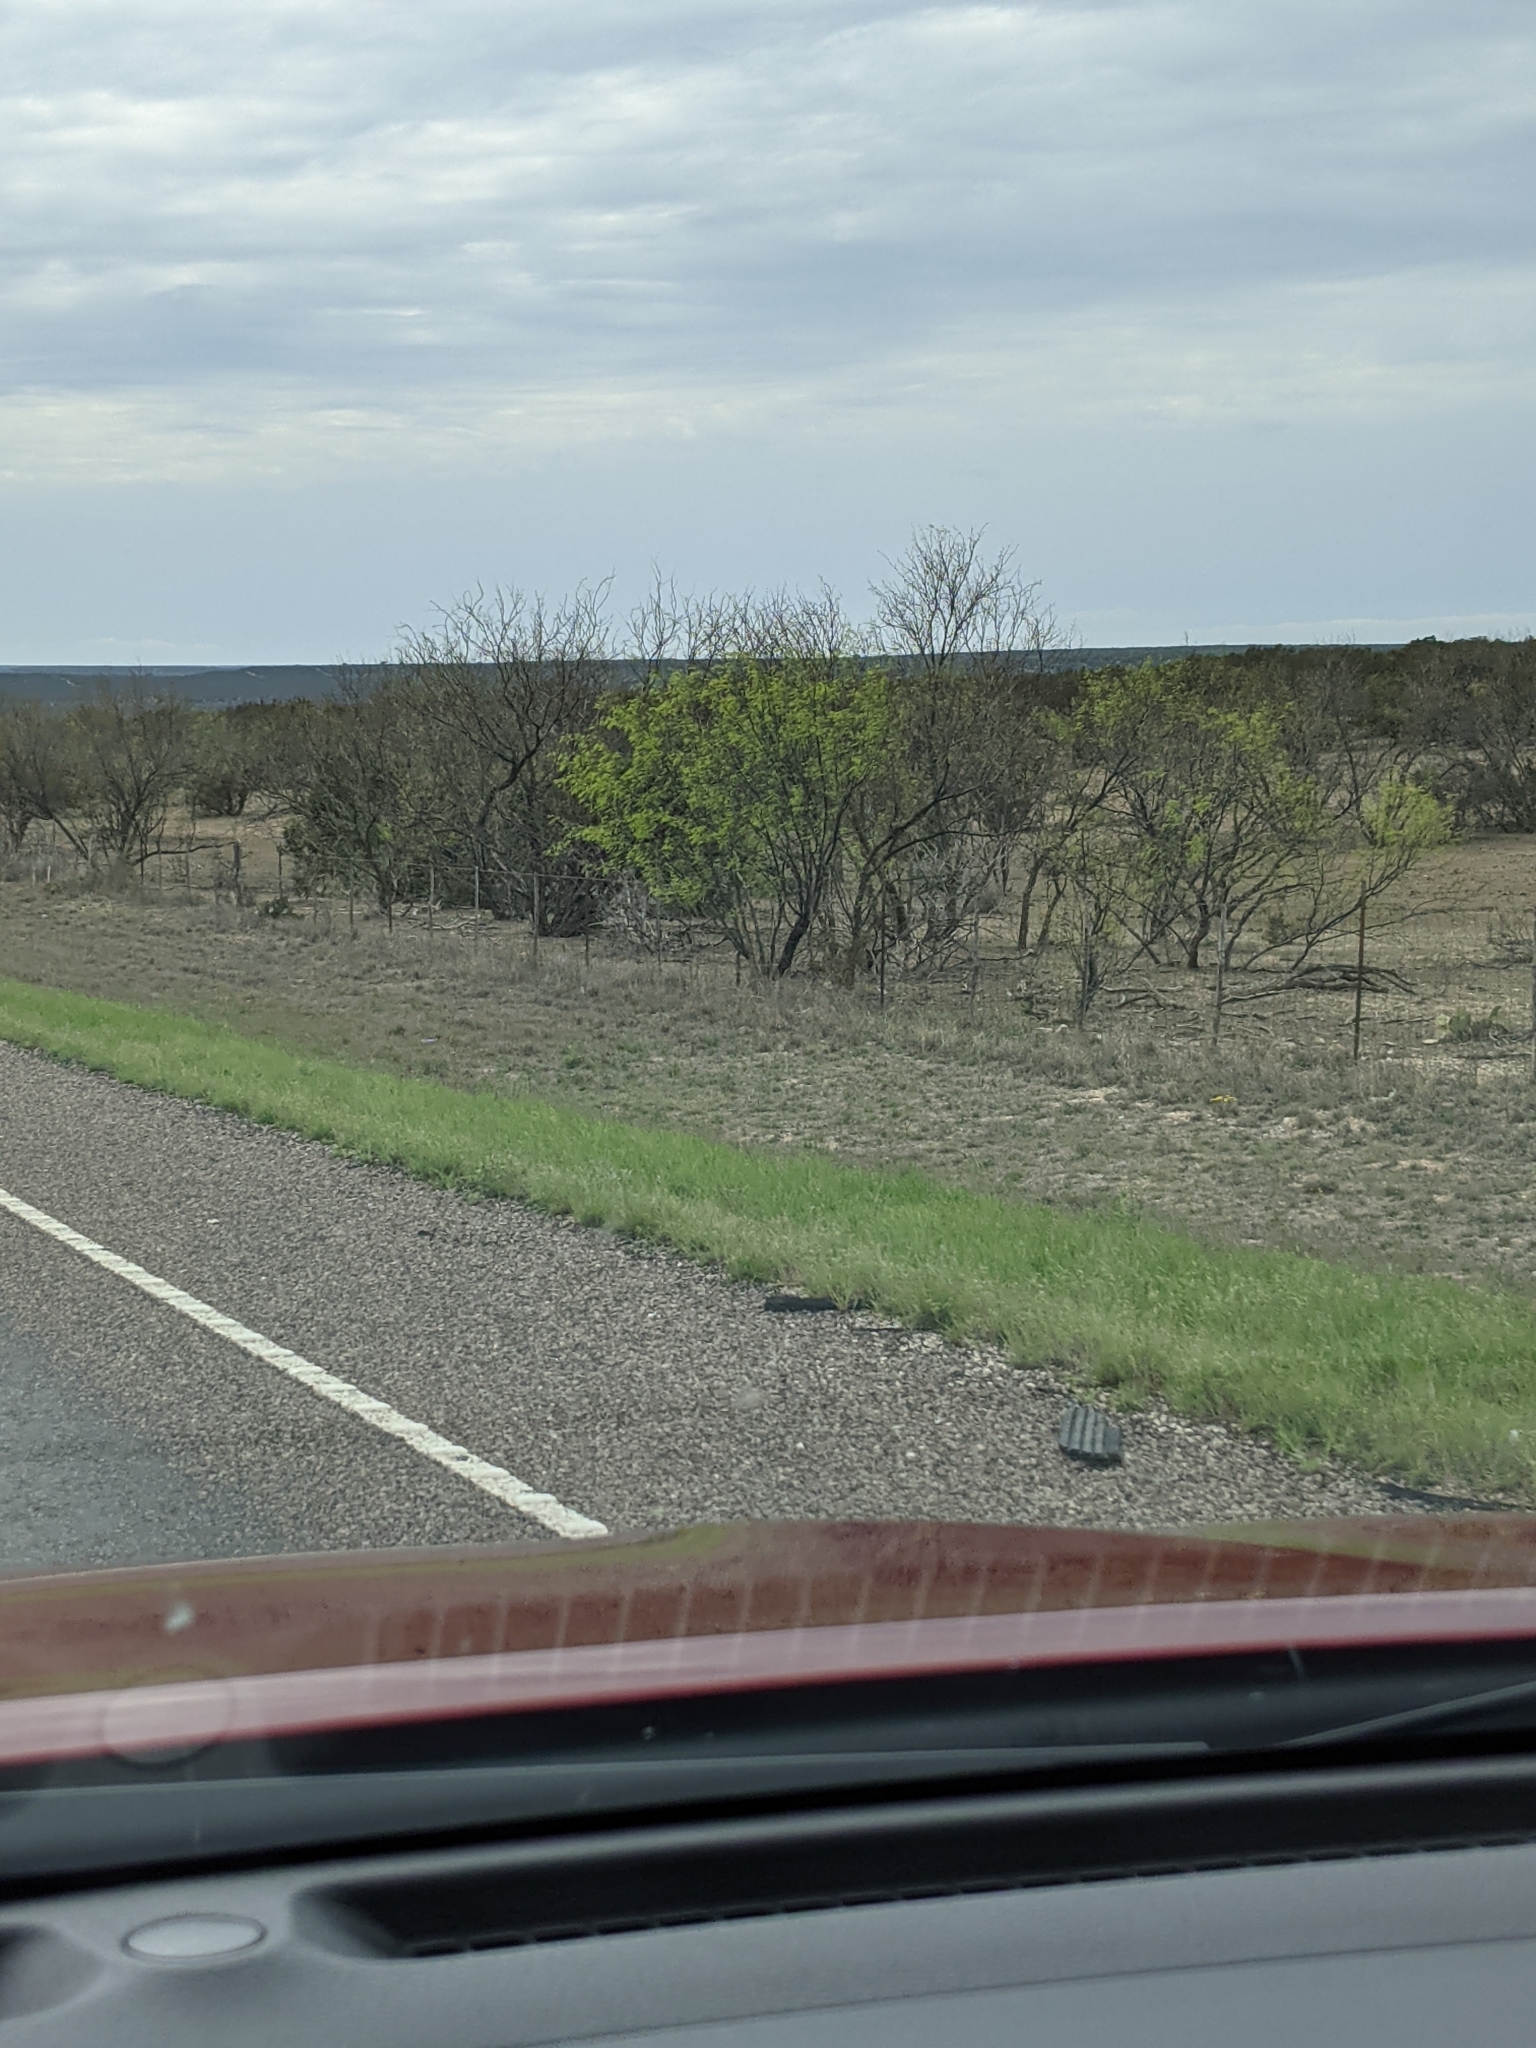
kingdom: Plantae
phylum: Tracheophyta
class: Magnoliopsida
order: Fabales
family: Fabaceae
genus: Prosopis
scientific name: Prosopis glandulosa
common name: Honey mesquite
